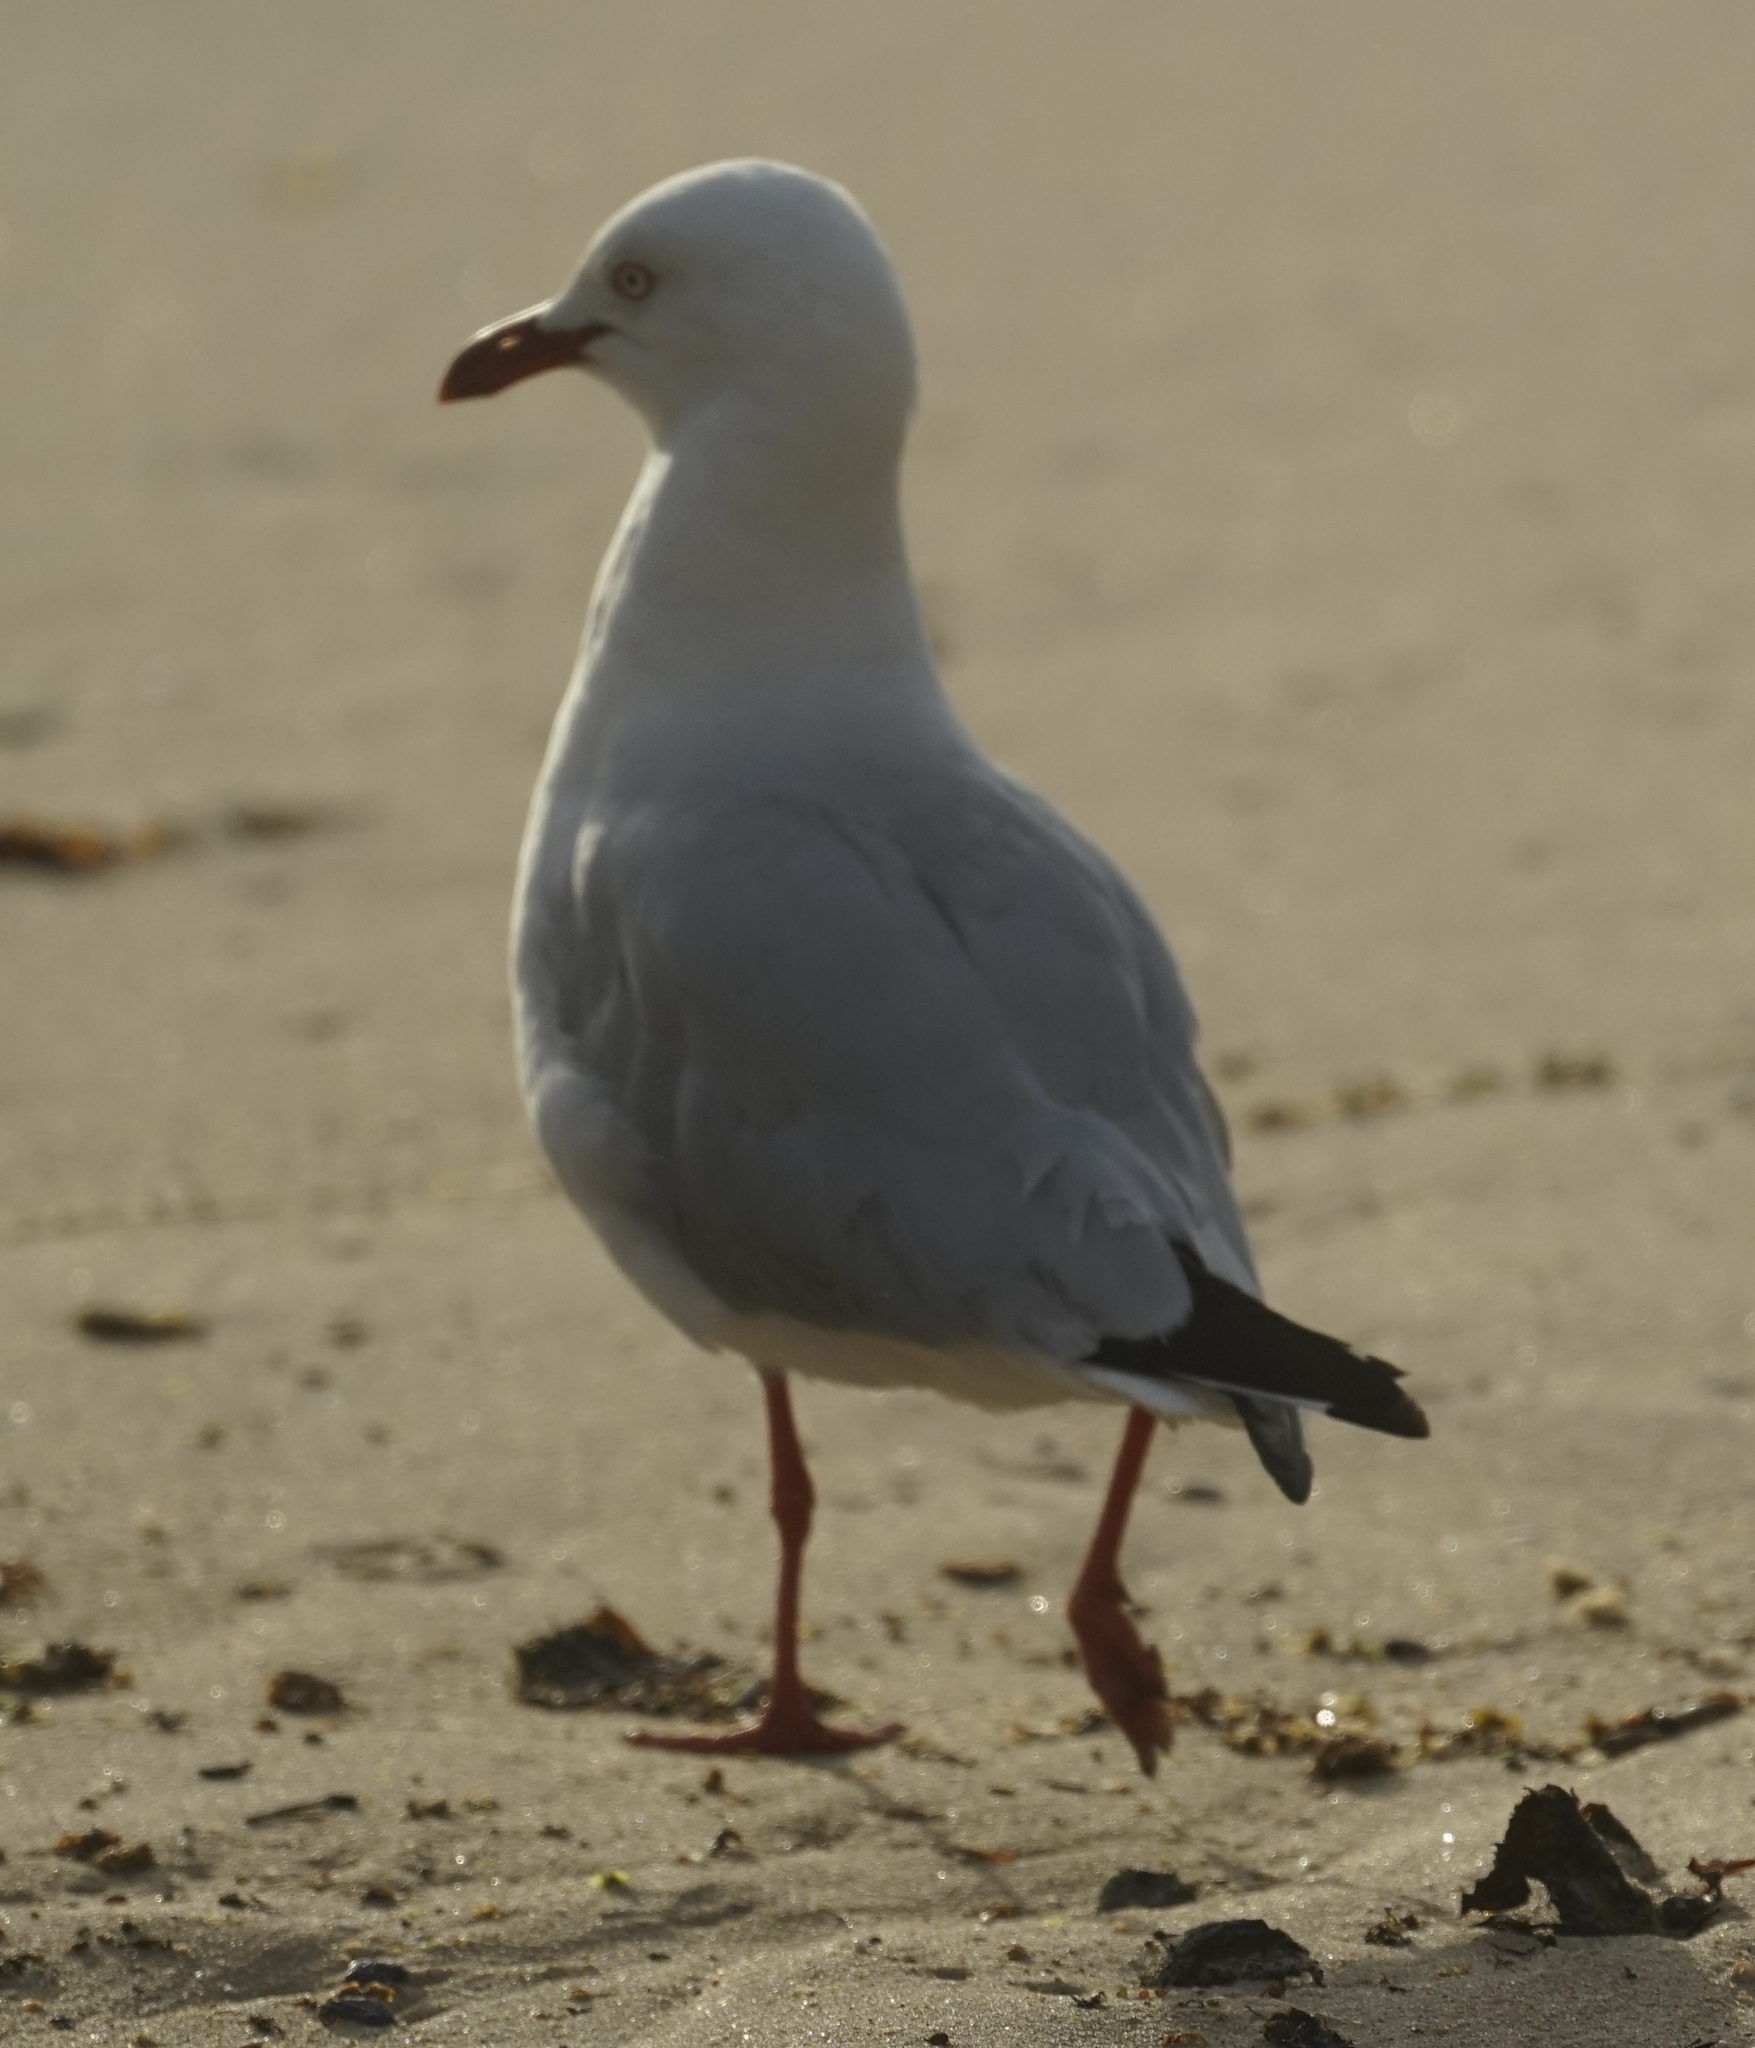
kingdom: Animalia
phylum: Chordata
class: Aves
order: Charadriiformes
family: Laridae
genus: Chroicocephalus
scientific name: Chroicocephalus novaehollandiae
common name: Silver gull
